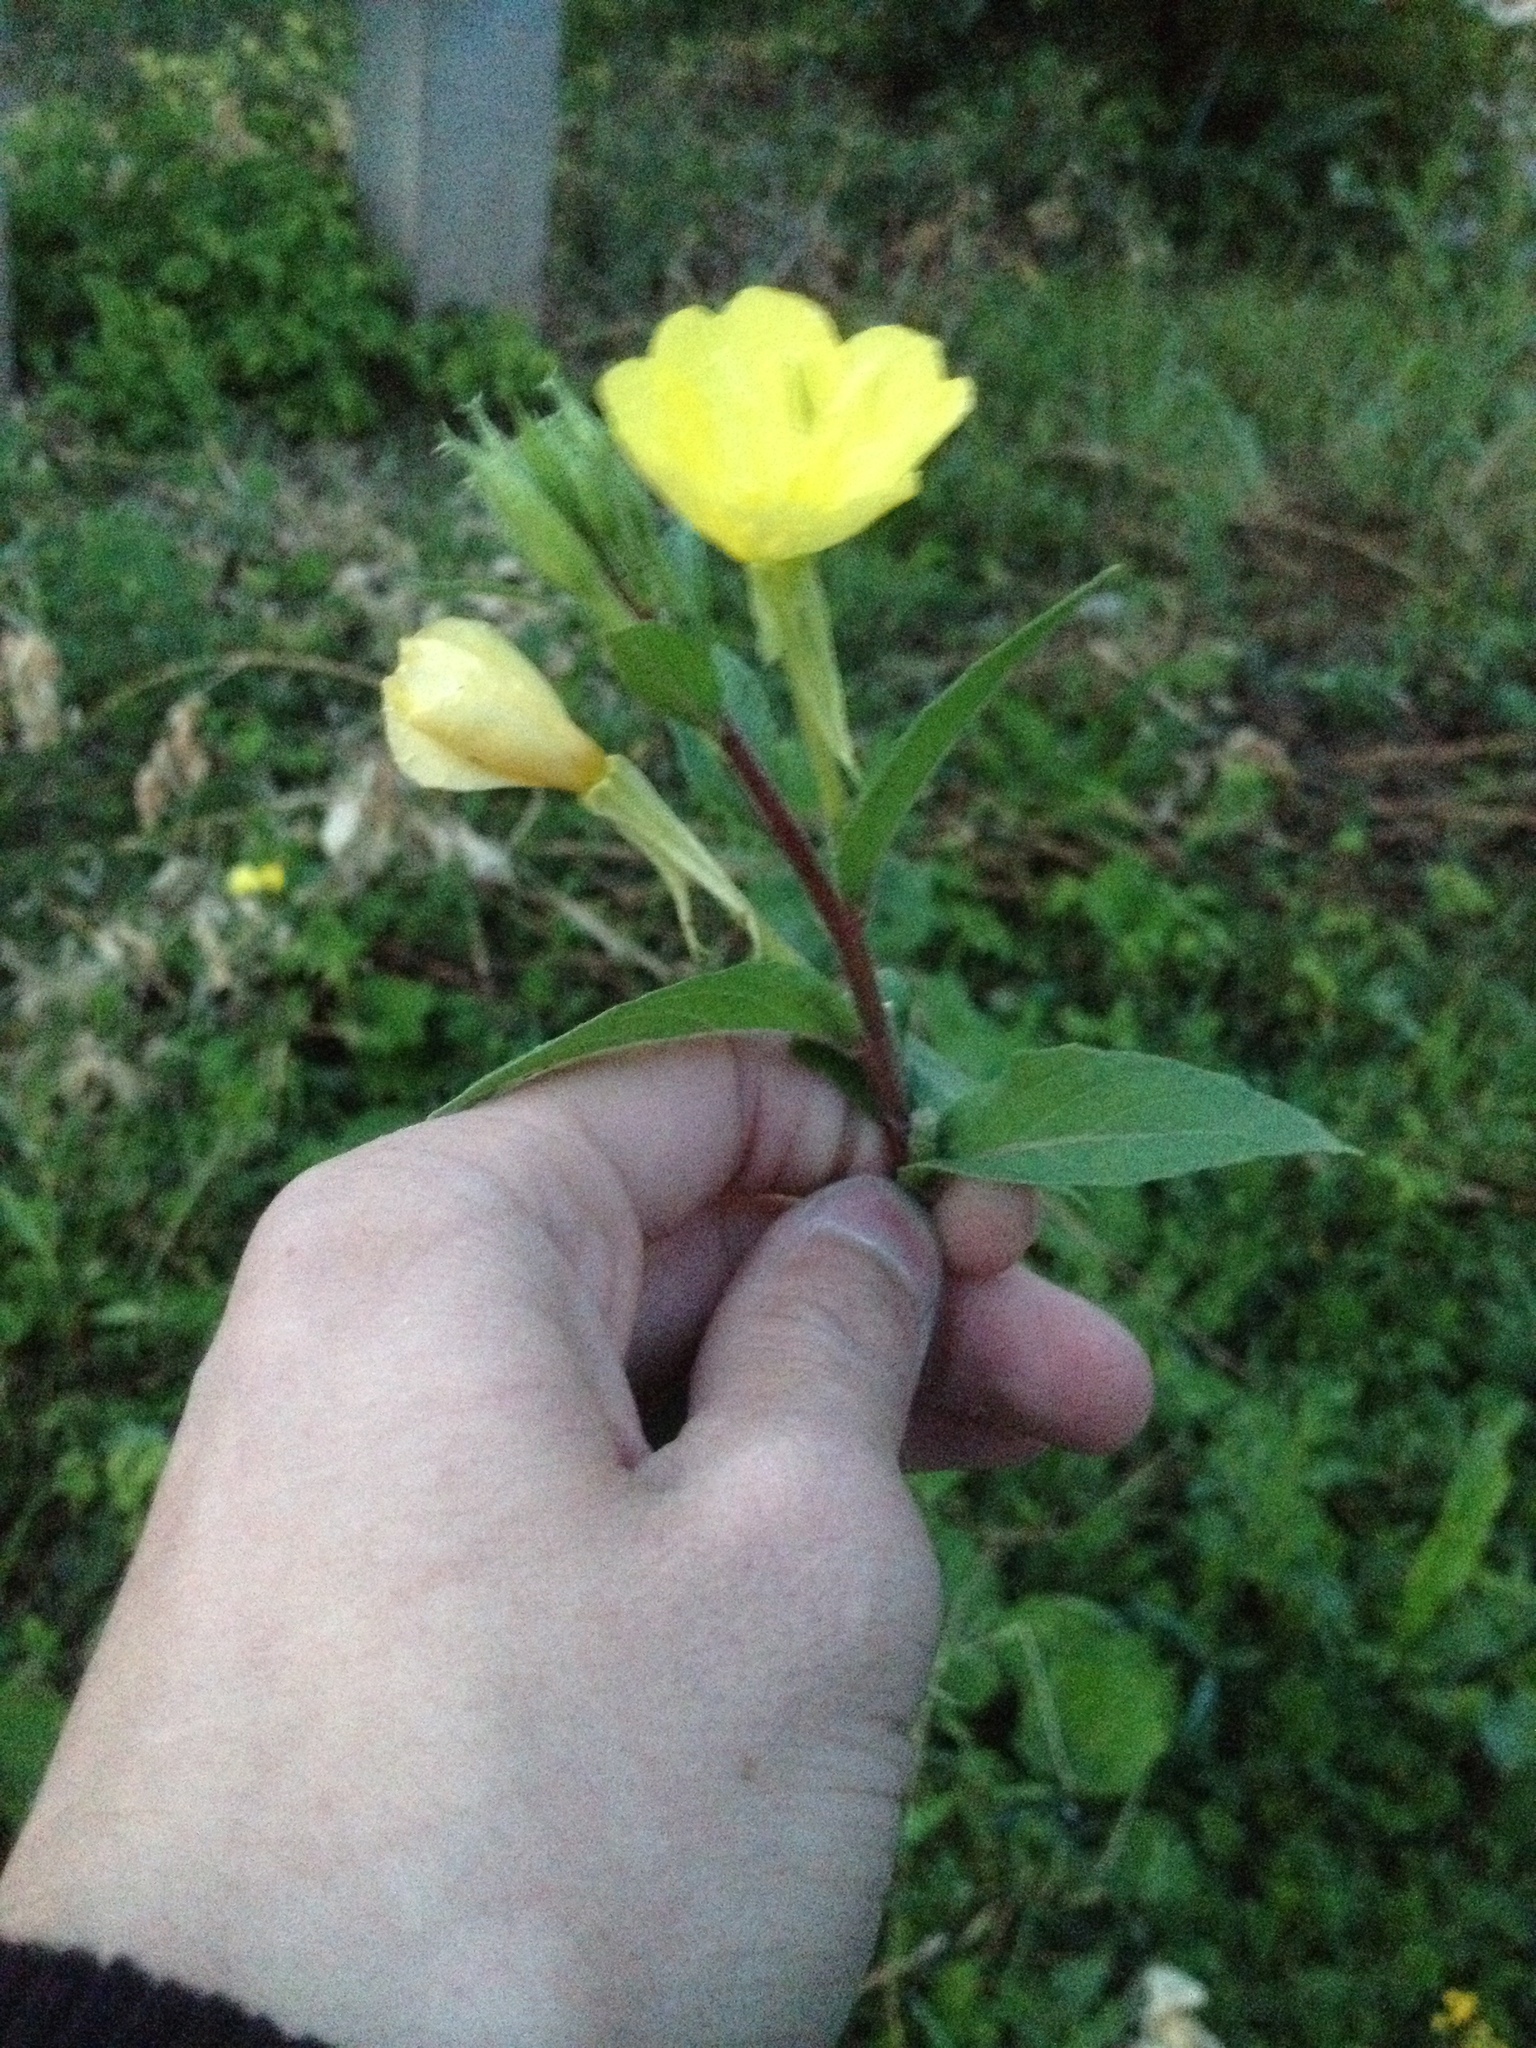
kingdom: Plantae
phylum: Tracheophyta
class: Magnoliopsida
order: Myrtales
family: Onagraceae
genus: Oenothera
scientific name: Oenothera rubricaulis
